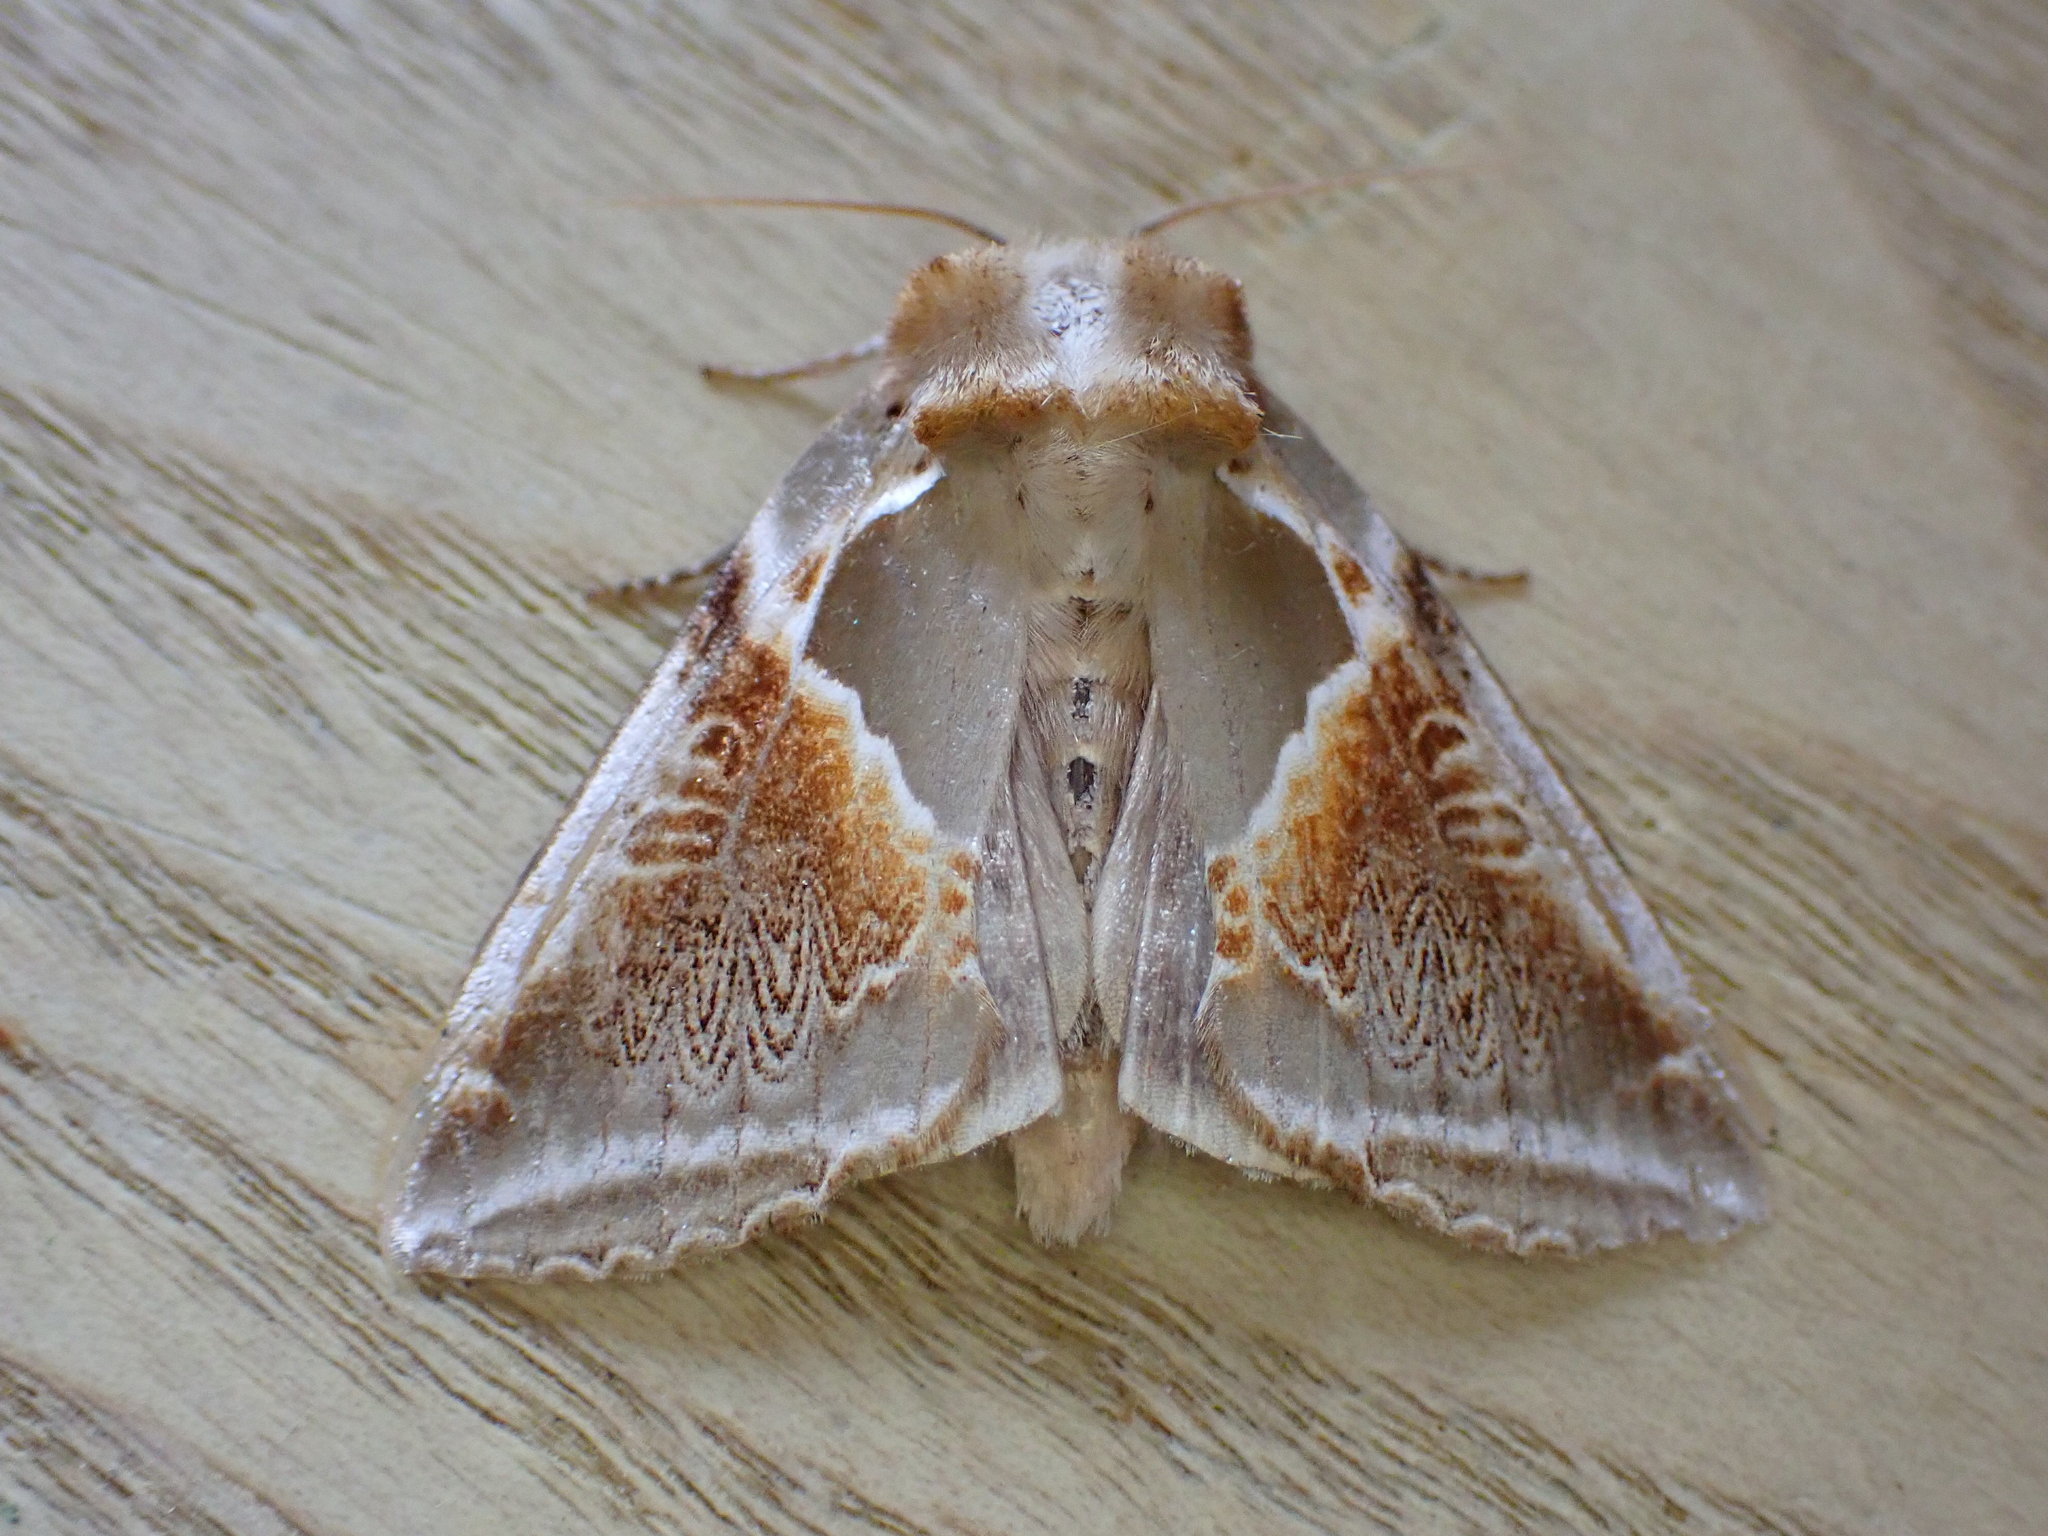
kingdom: Animalia
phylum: Arthropoda
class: Insecta
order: Lepidoptera
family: Drepanidae
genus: Habrosyne
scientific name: Habrosyne pyritoides
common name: Buff arches
